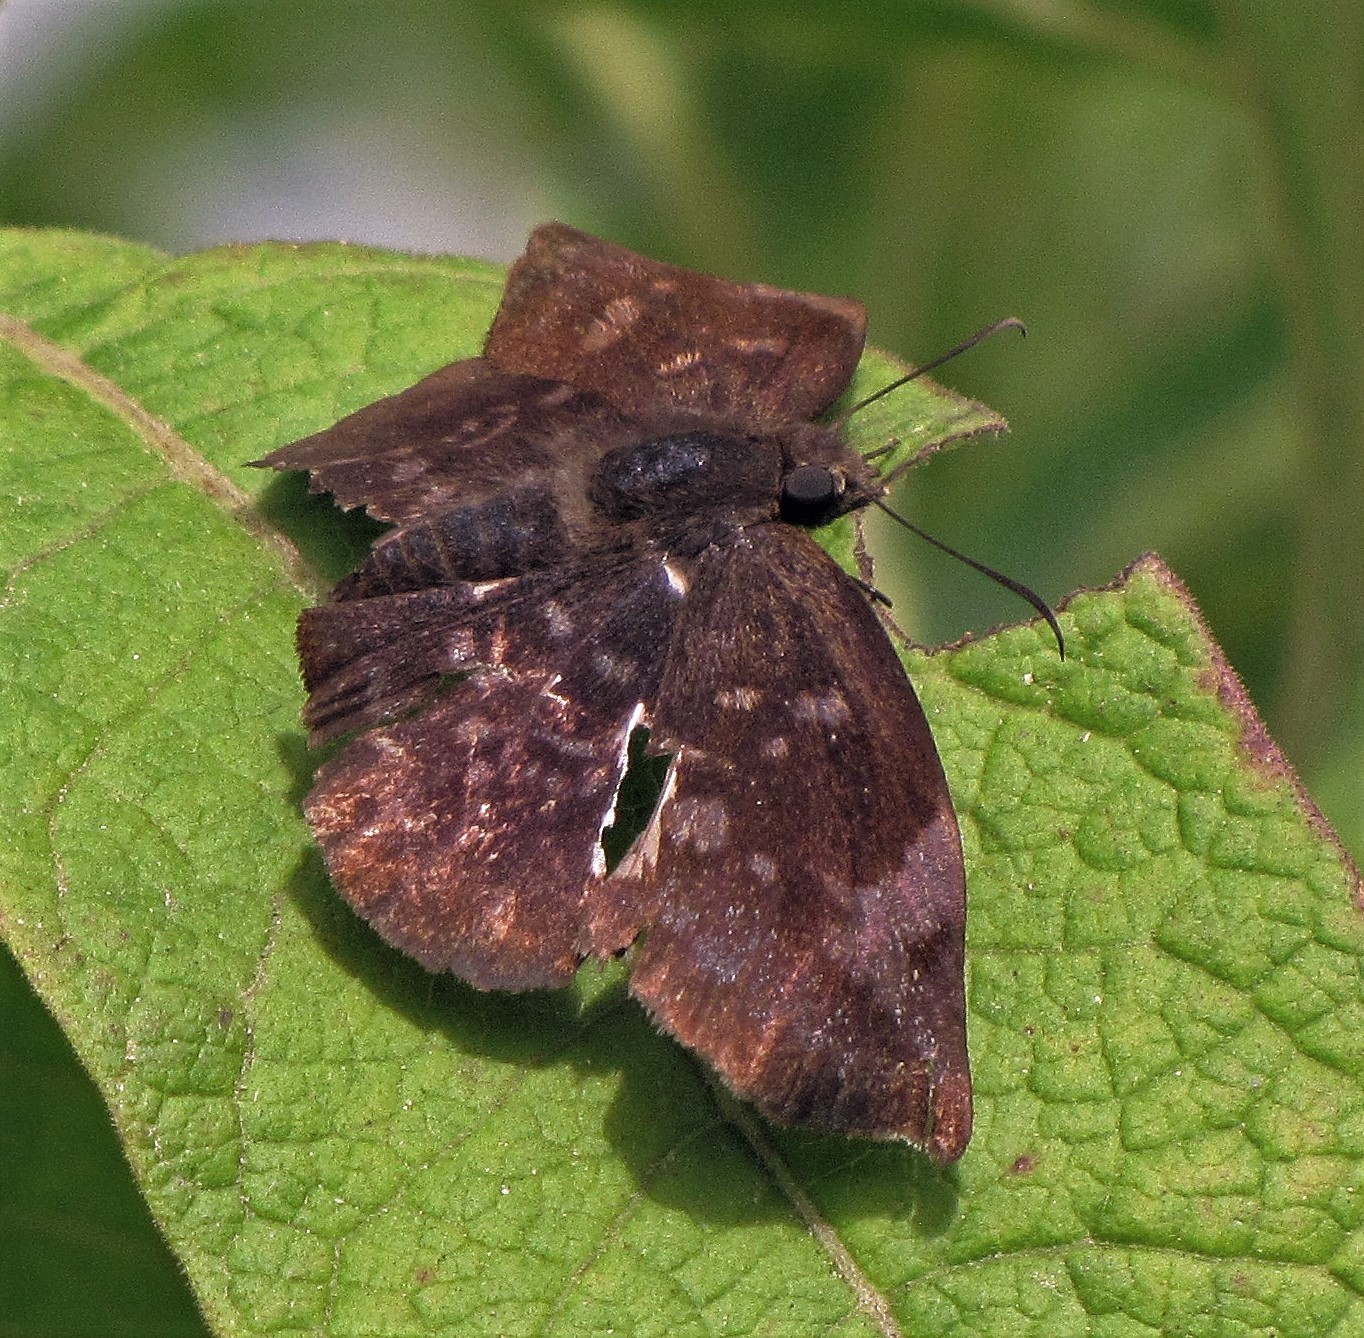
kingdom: Animalia
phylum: Arthropoda
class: Insecta
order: Lepidoptera
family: Hesperiidae
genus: Achlyodes
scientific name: Achlyodes thraso
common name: Sickle-winged skipper
